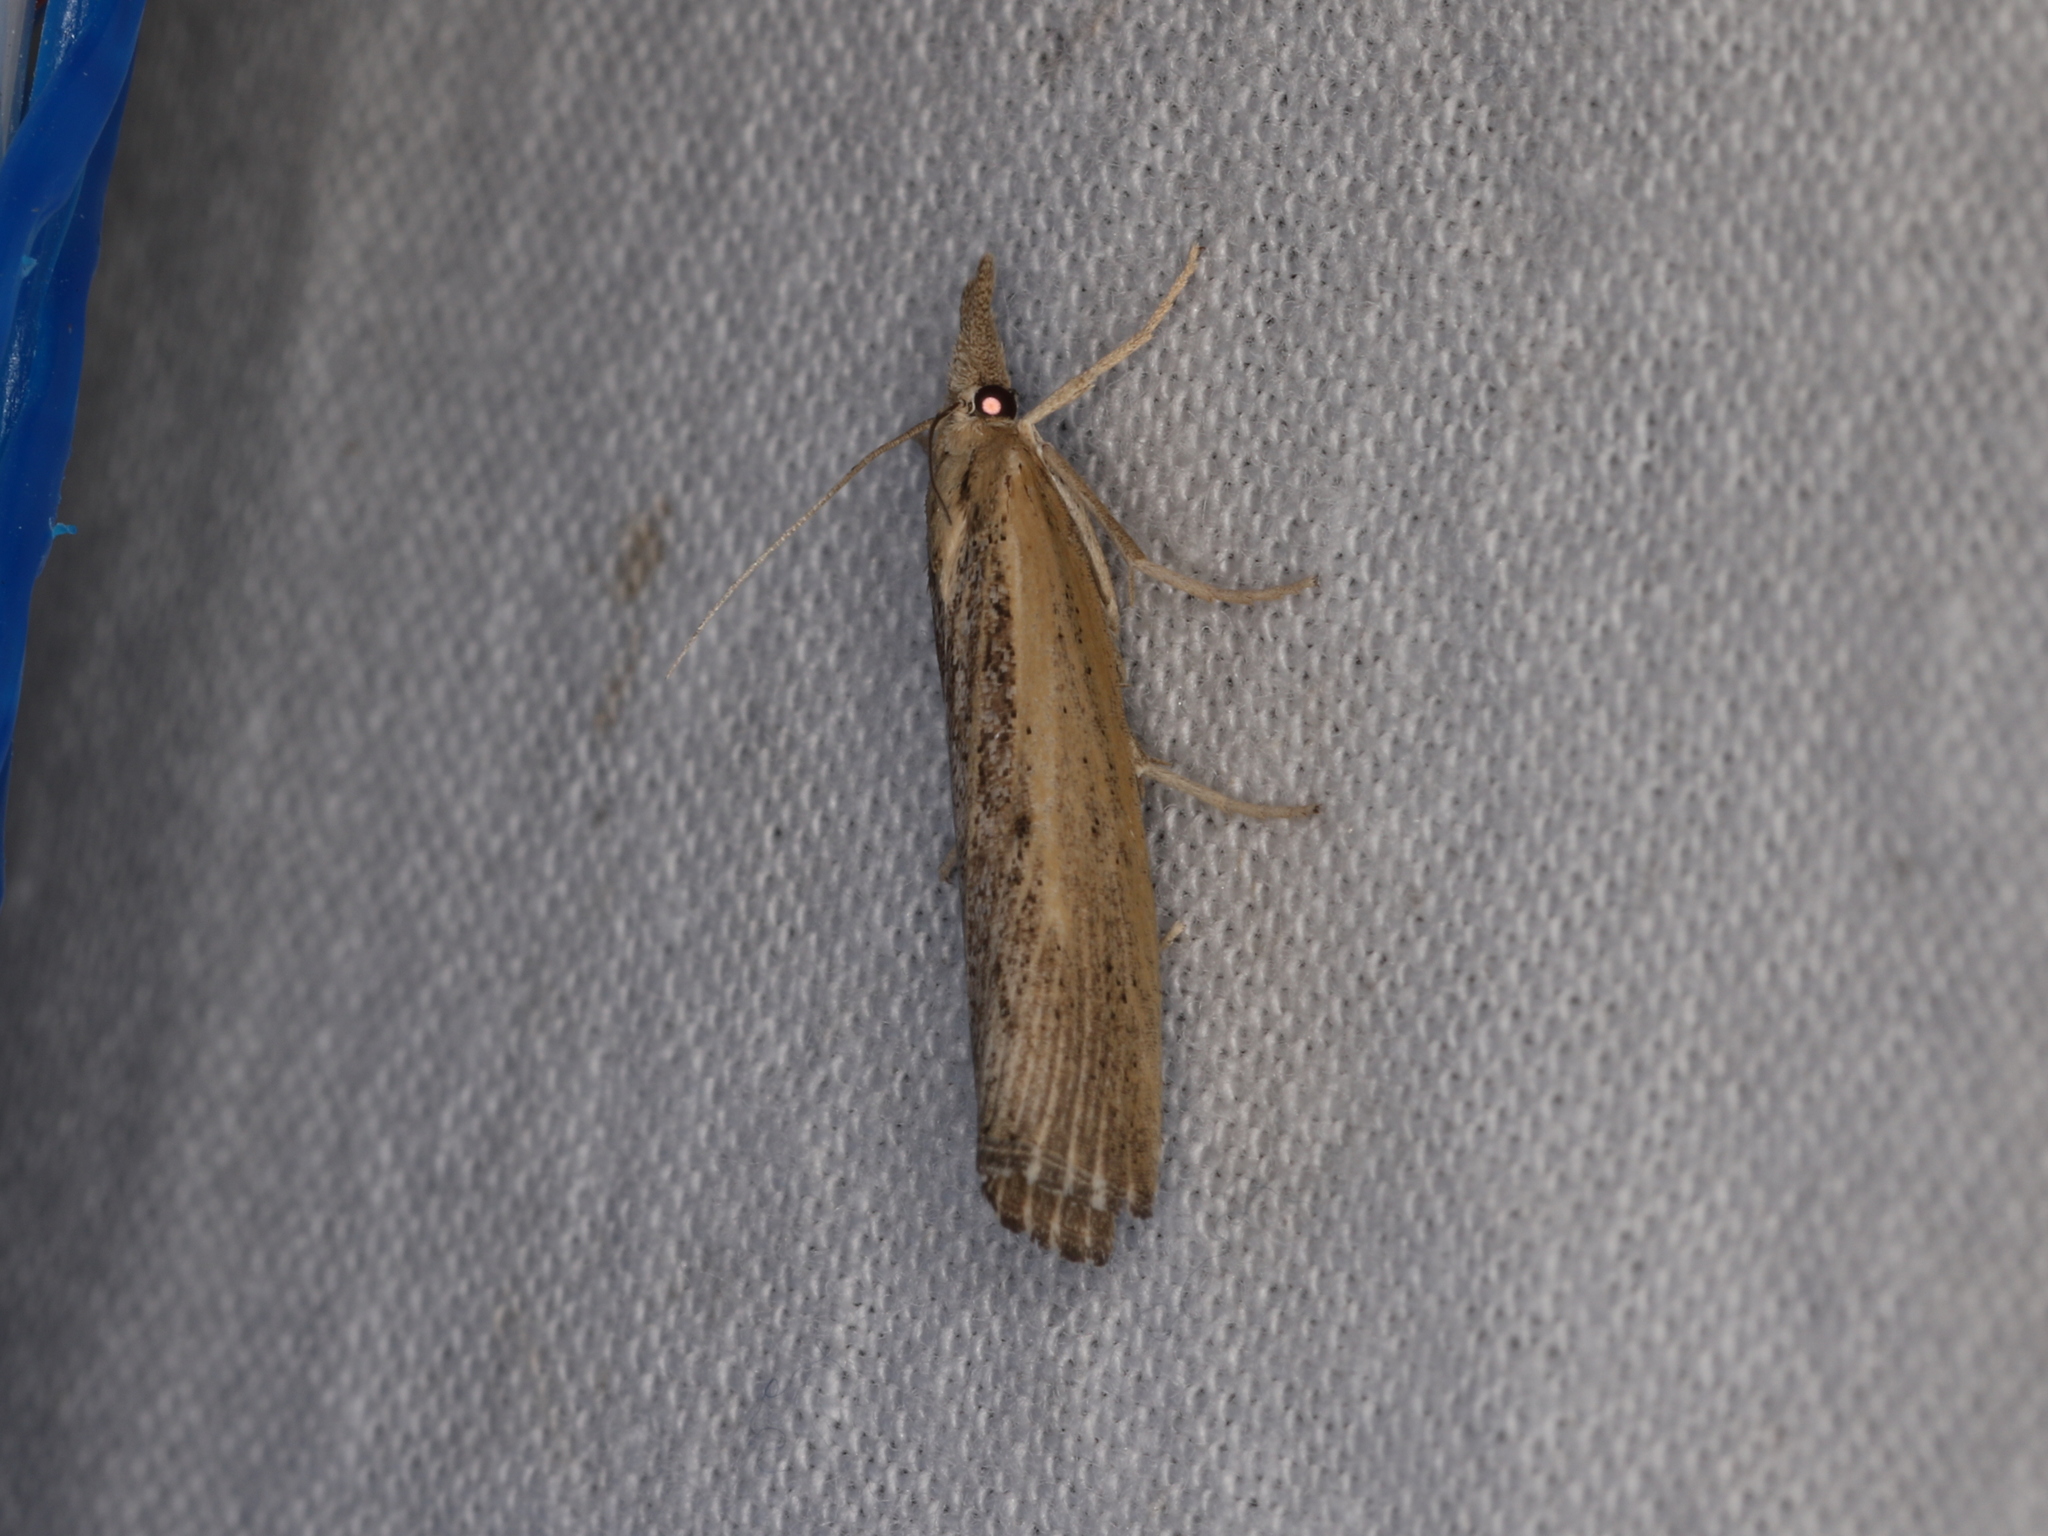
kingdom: Animalia
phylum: Arthropoda
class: Insecta
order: Lepidoptera
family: Crambidae
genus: Pediasia
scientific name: Pediasia trisecta
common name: Sod webworm moth
